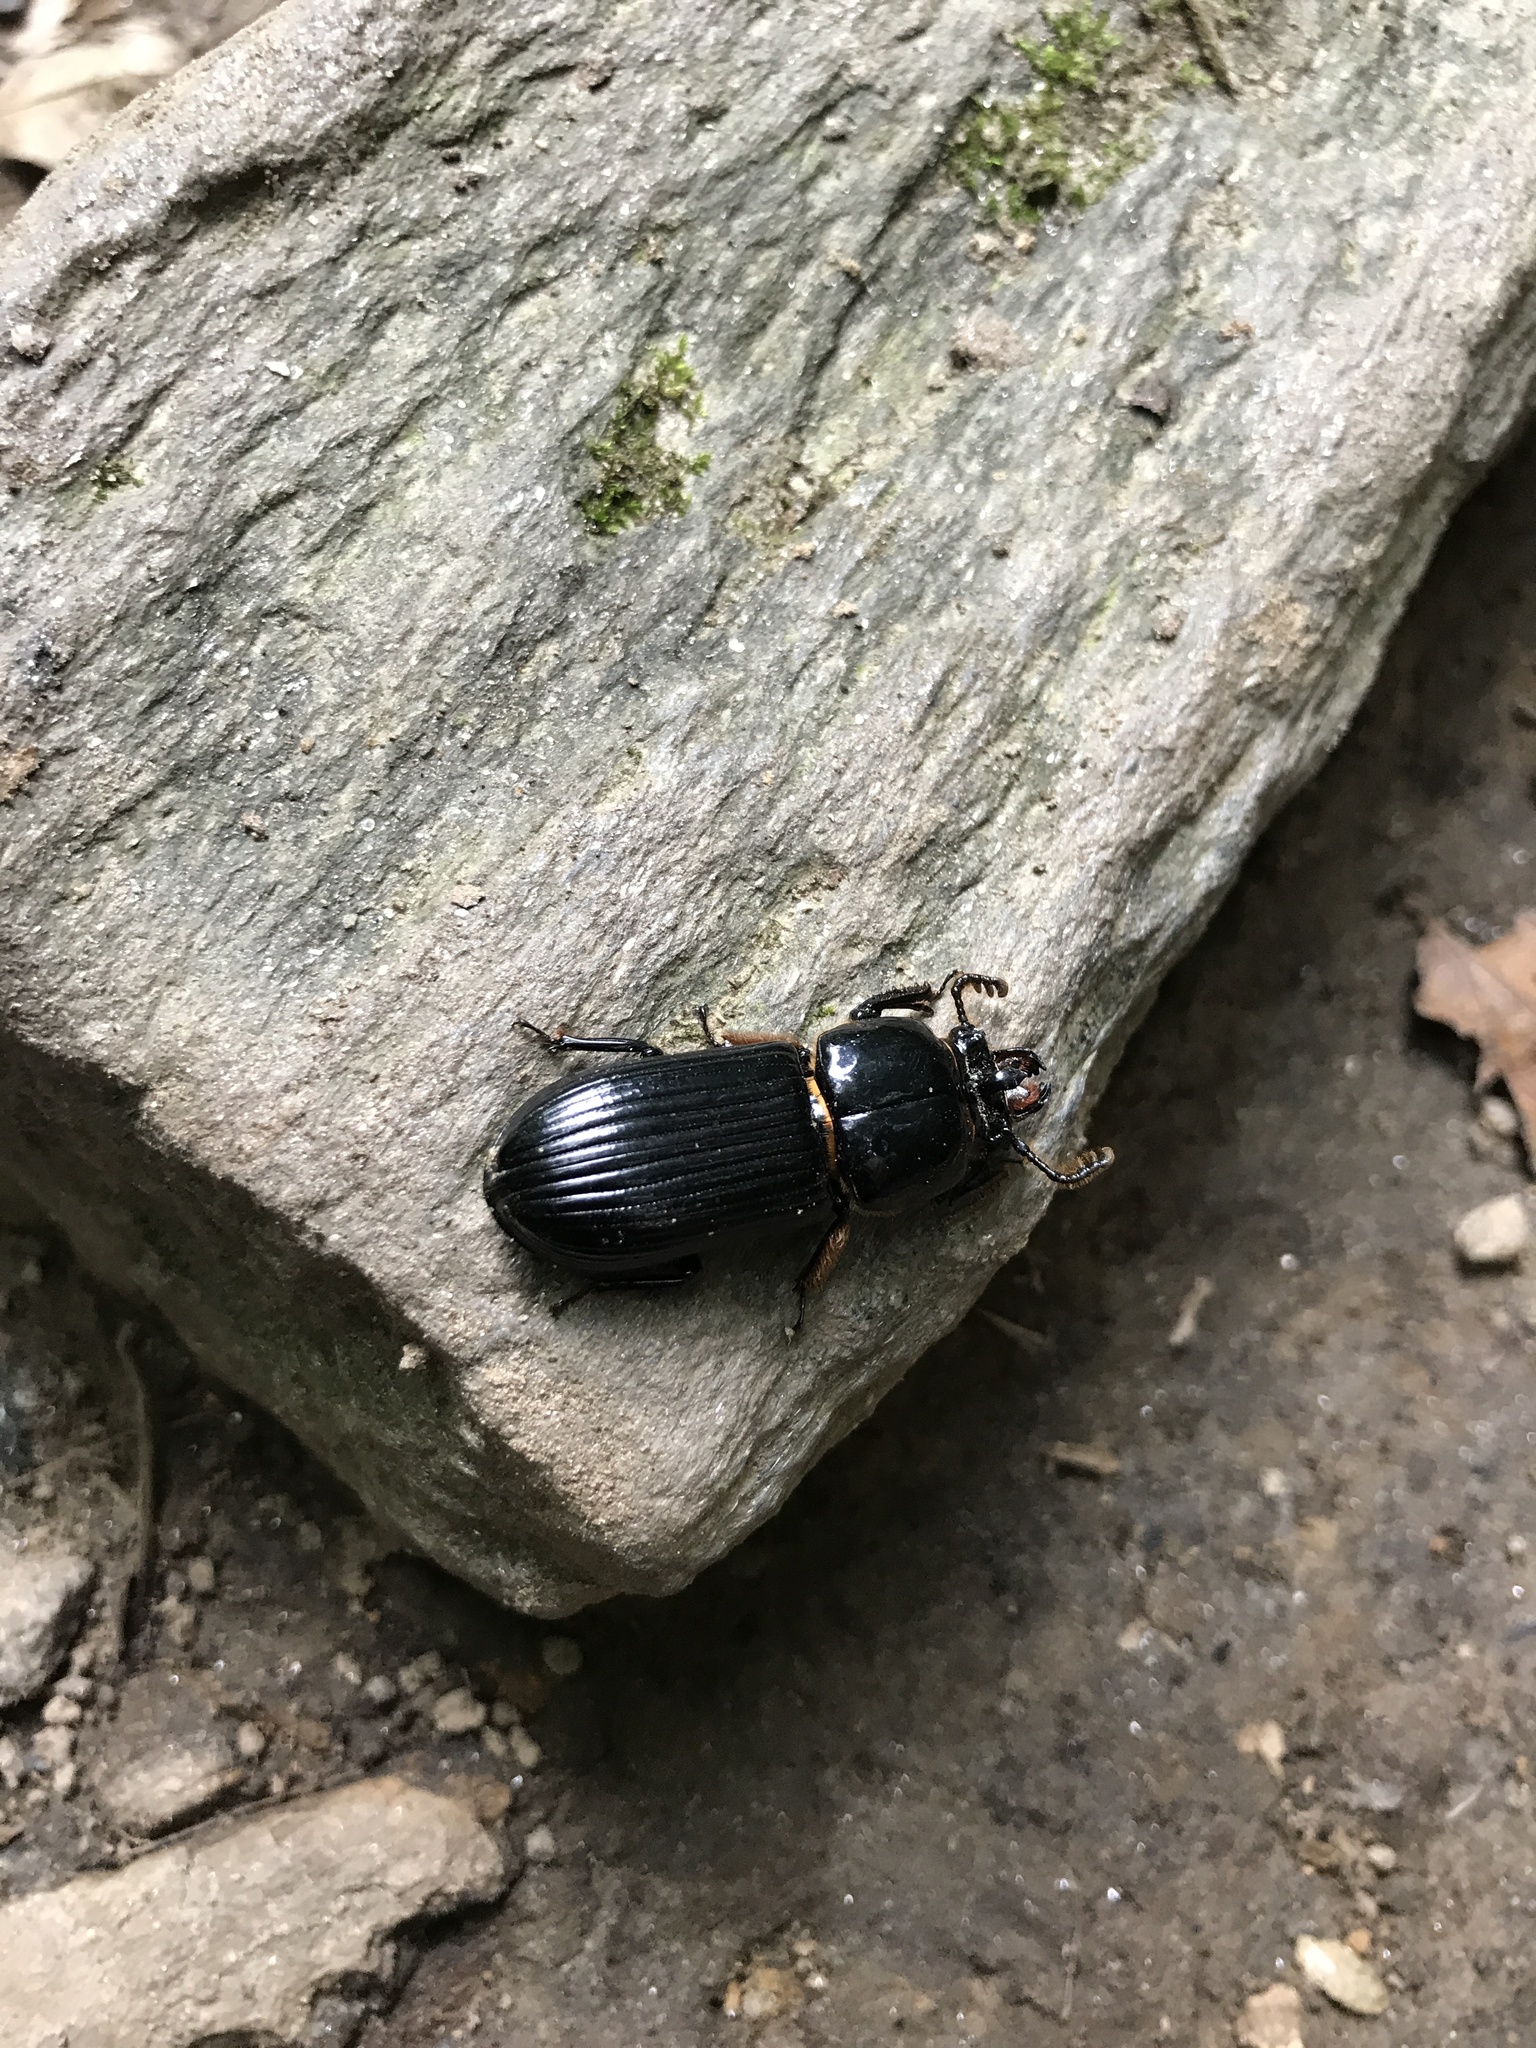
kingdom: Animalia
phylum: Arthropoda
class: Insecta
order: Coleoptera
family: Passalidae
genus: Odontotaenius
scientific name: Odontotaenius disjunctus
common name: Patent leather beetle
